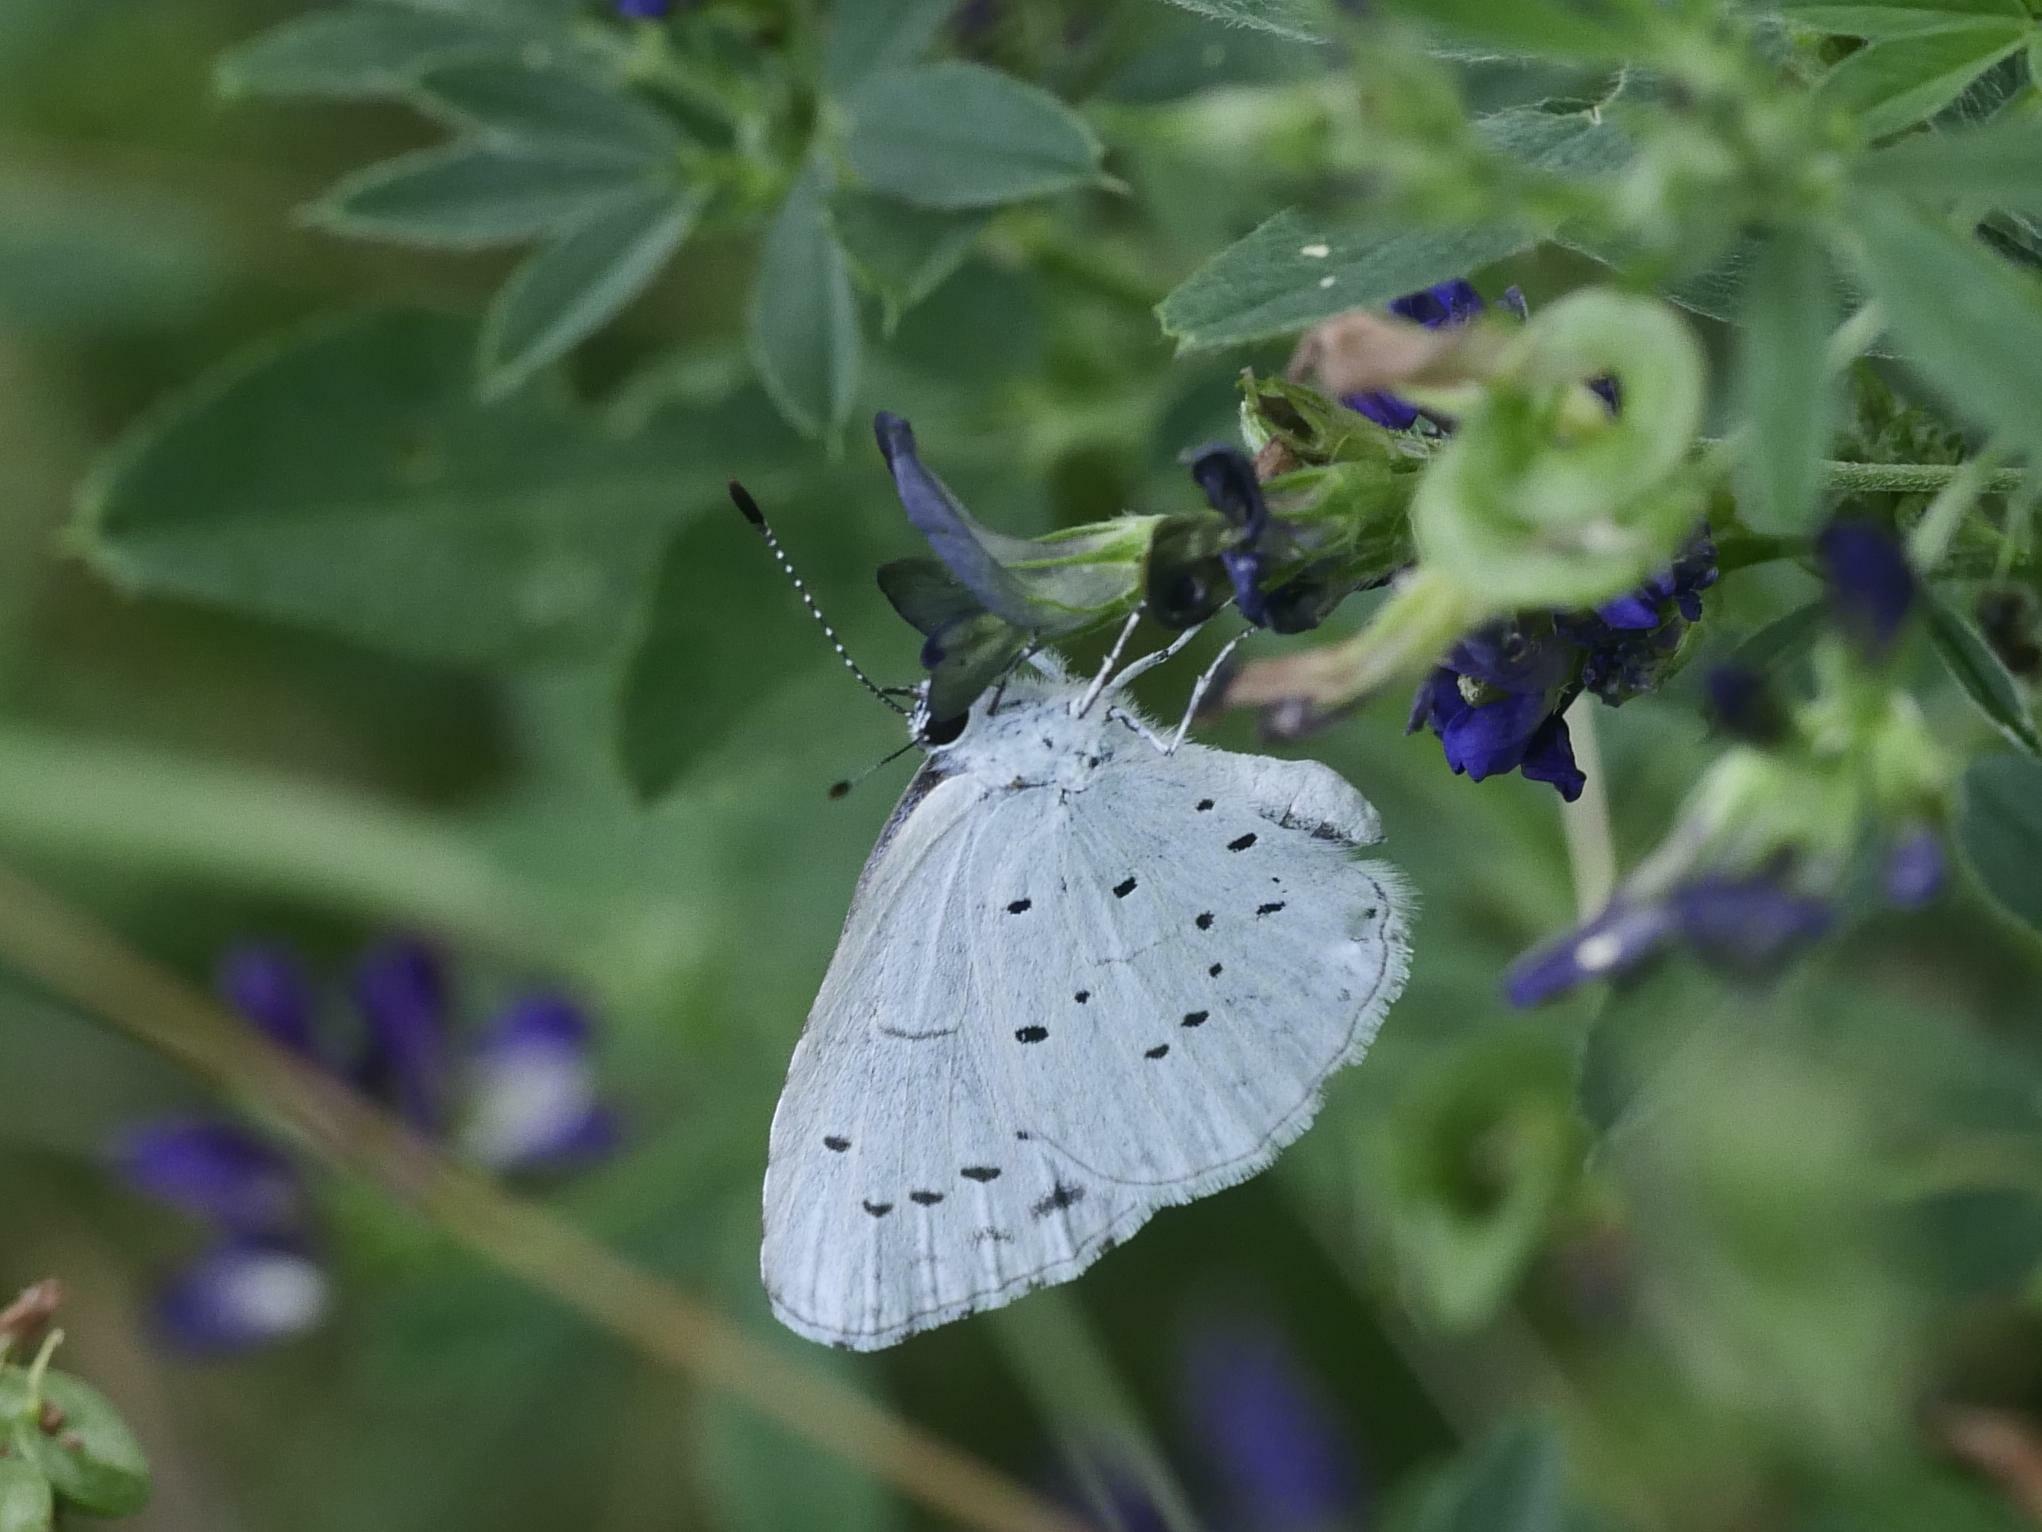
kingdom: Animalia
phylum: Arthropoda
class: Insecta
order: Lepidoptera
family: Lycaenidae
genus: Celastrina
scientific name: Celastrina argiolus
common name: Holly blue
